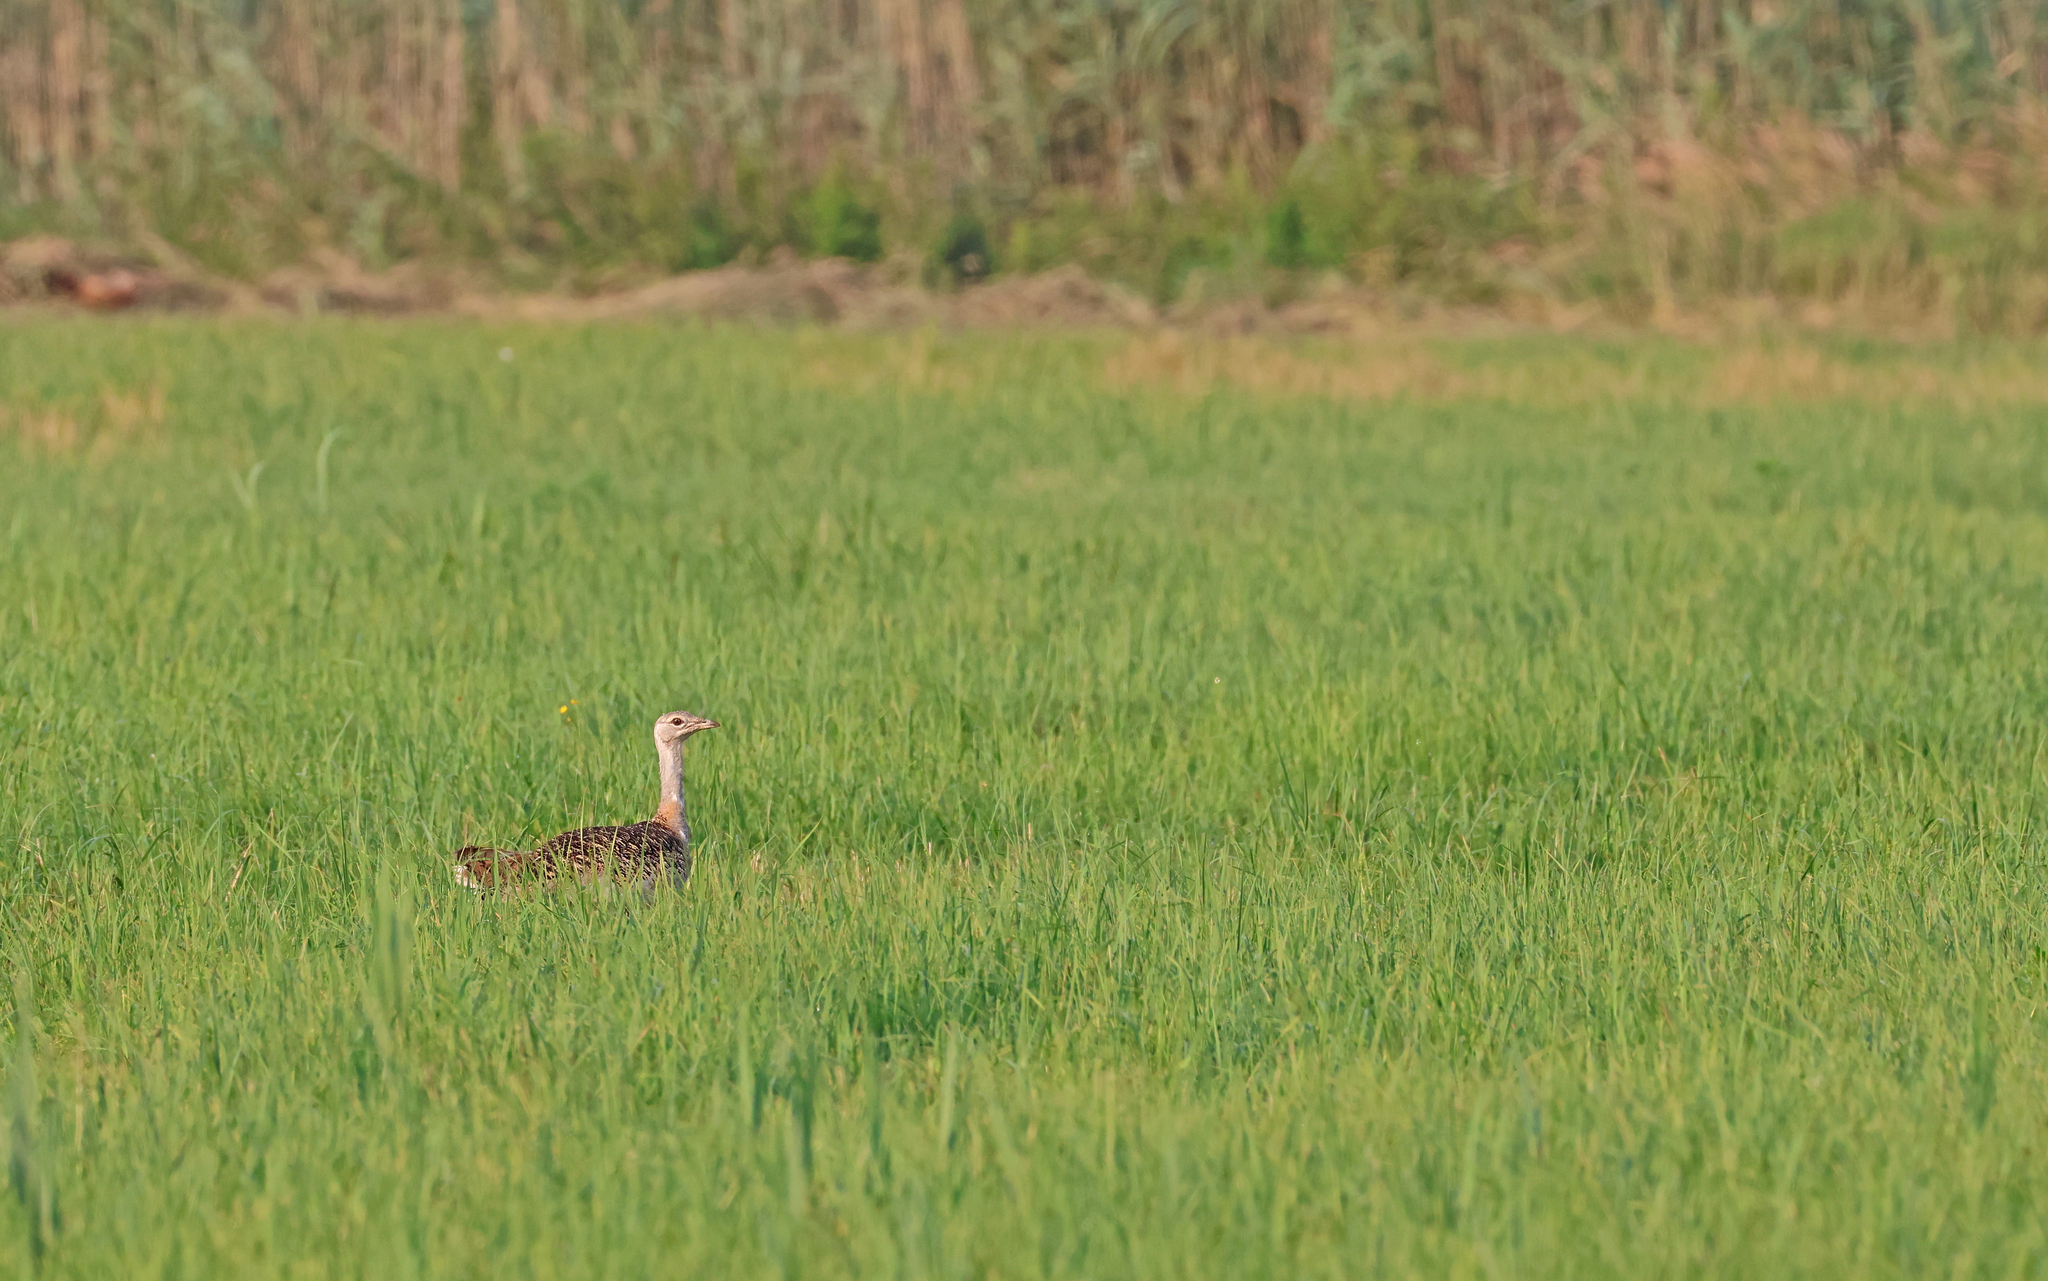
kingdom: Animalia
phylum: Chordata
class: Aves
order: Otidiformes
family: Otididae
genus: Otis
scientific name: Otis tarda
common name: Great bustard
